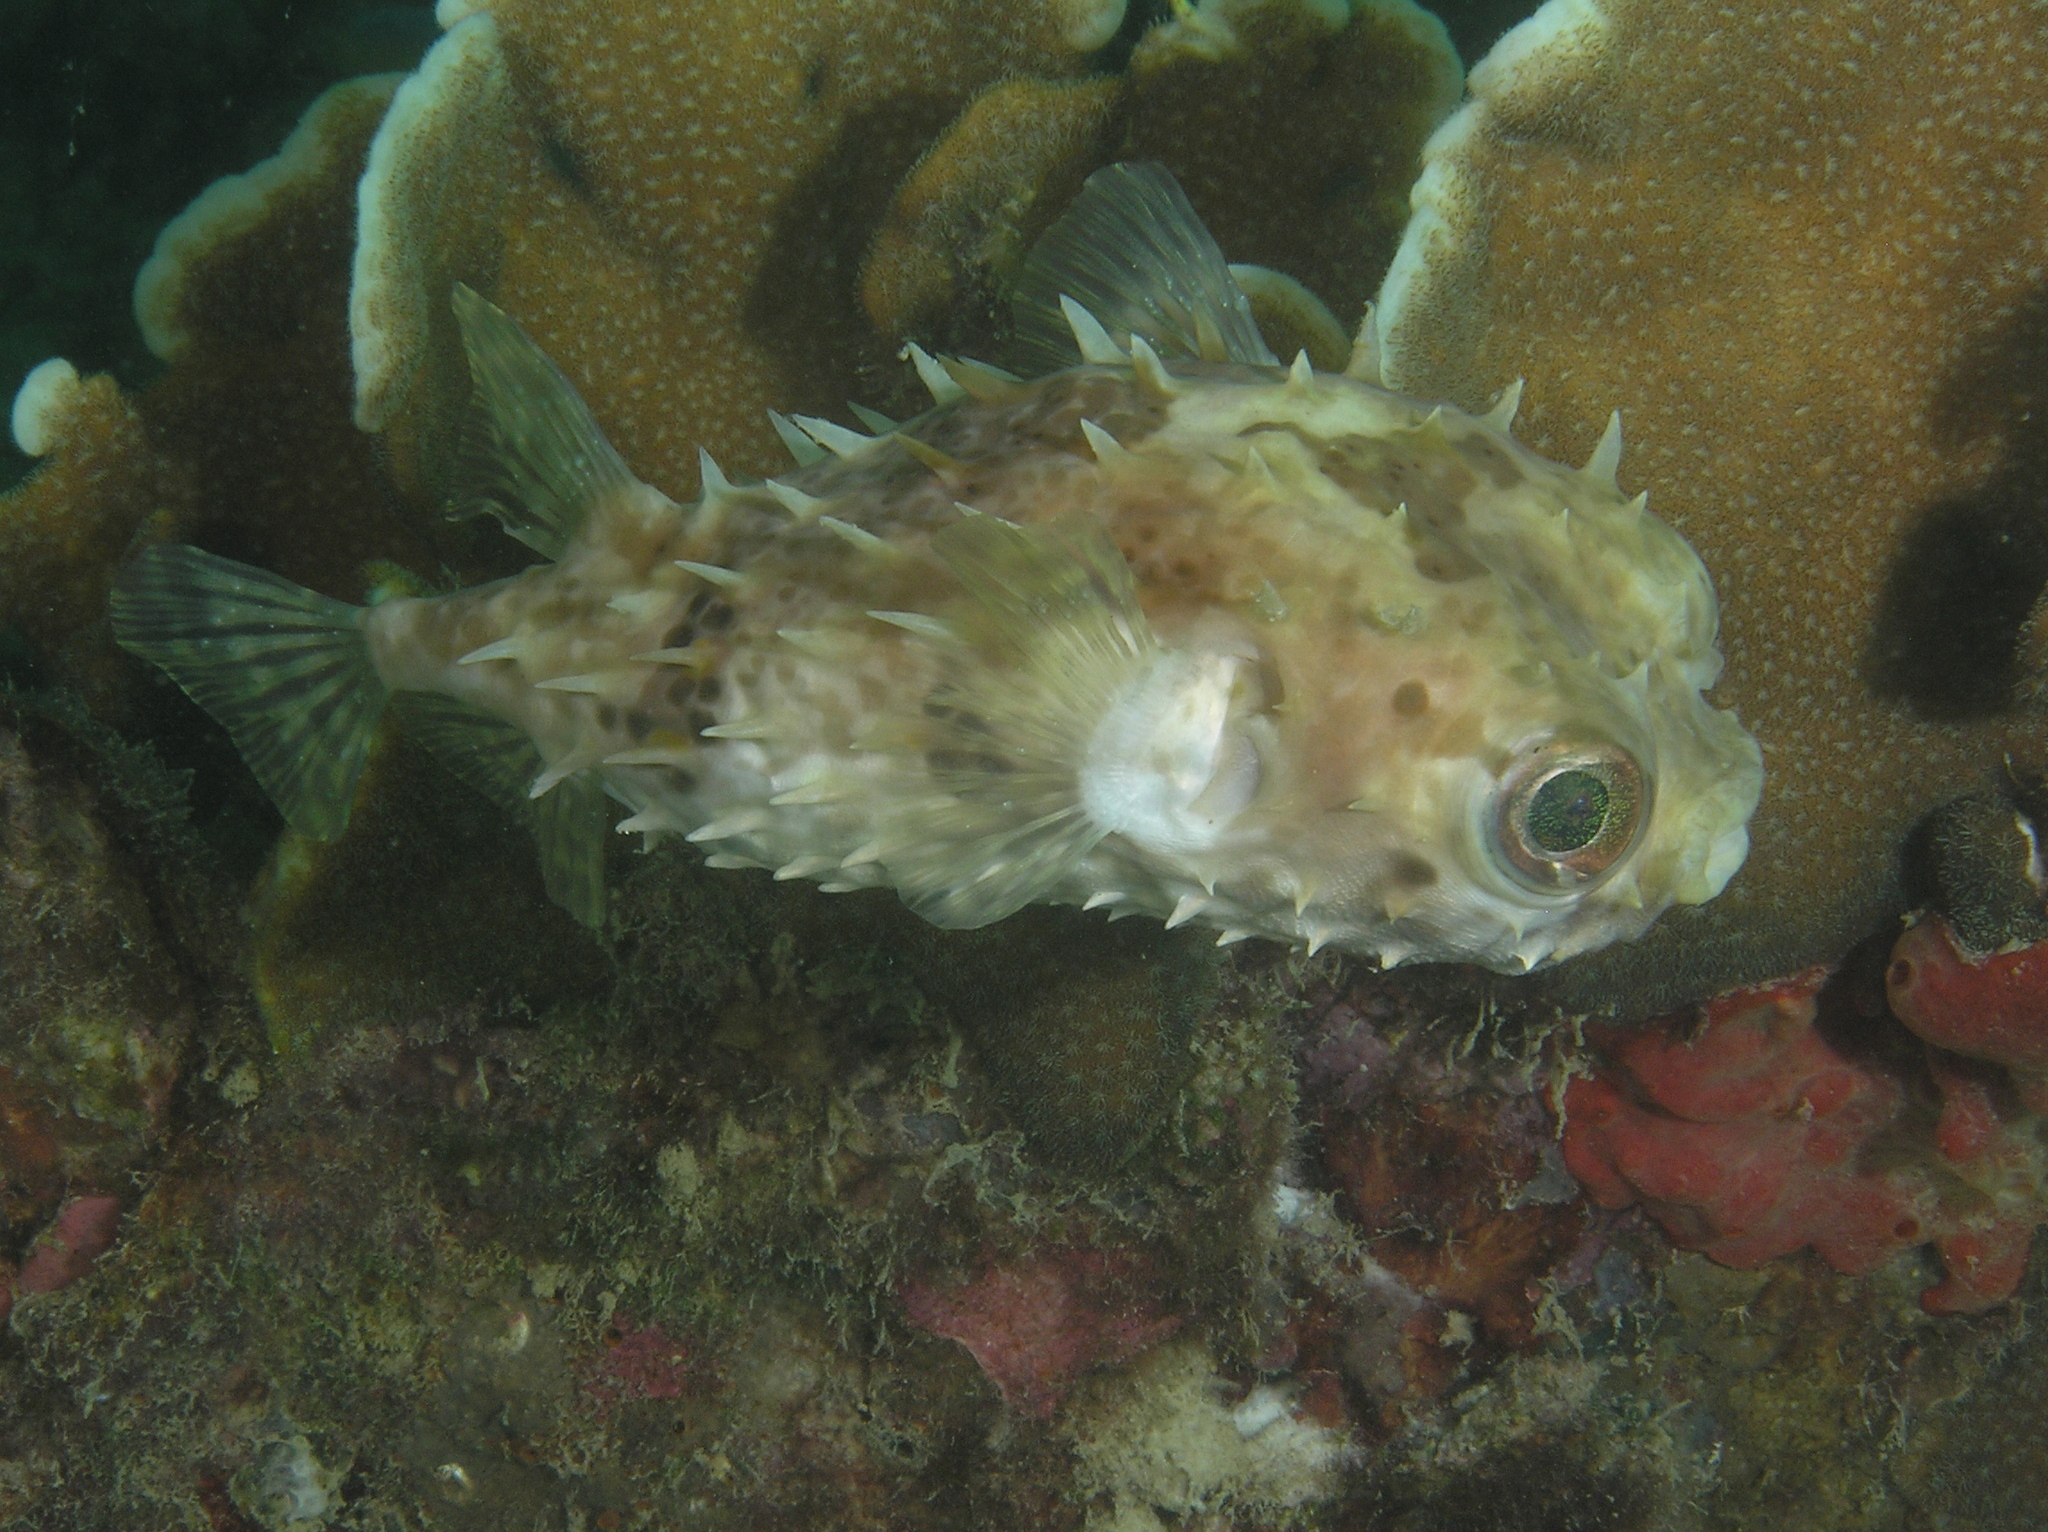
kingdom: Animalia
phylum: Chordata
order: Tetraodontiformes
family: Diodontidae
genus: Cyclichthys
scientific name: Cyclichthys orbicularis
